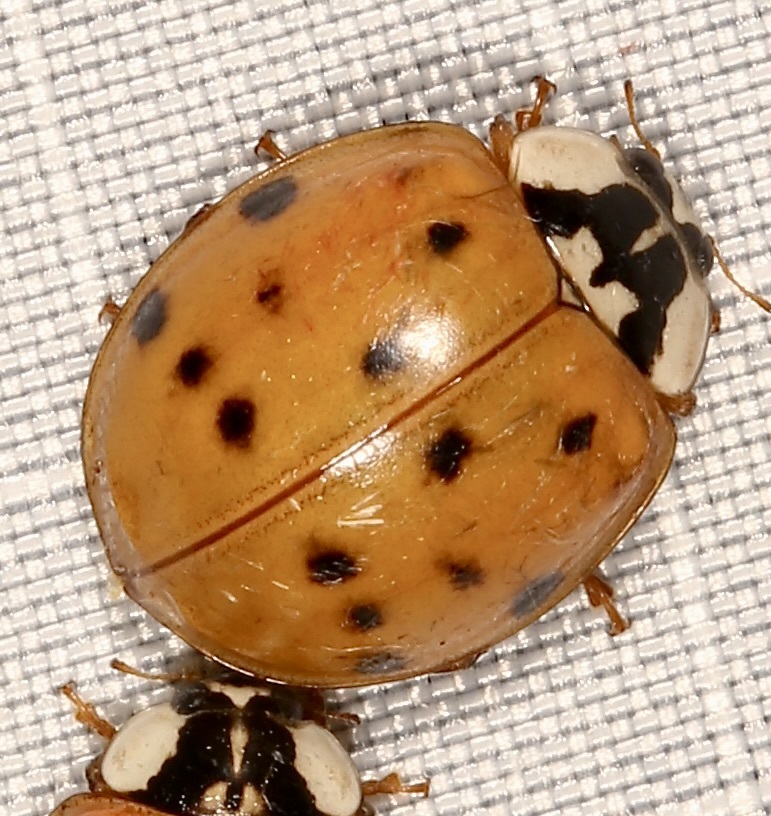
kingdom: Animalia
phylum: Arthropoda
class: Insecta
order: Coleoptera
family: Coccinellidae
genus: Harmonia
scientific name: Harmonia axyridis
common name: Harlequin ladybird
